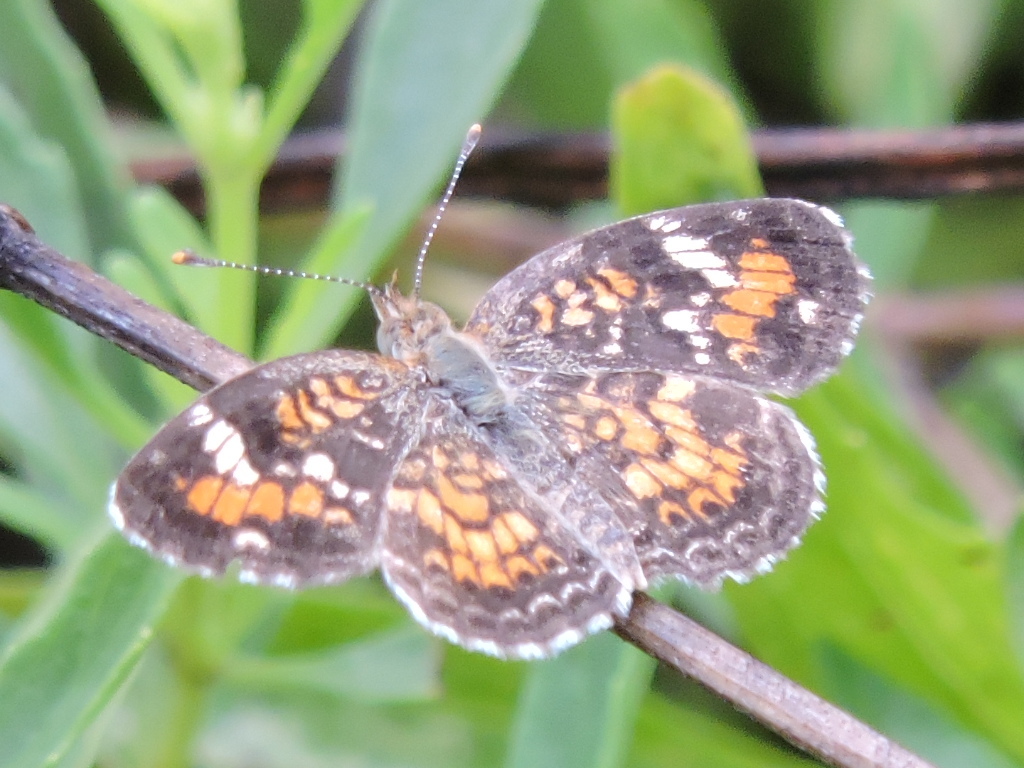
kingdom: Animalia
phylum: Arthropoda
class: Insecta
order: Lepidoptera
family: Nymphalidae
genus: Phyciodes
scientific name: Phyciodes phaon
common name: Phaon crescent
